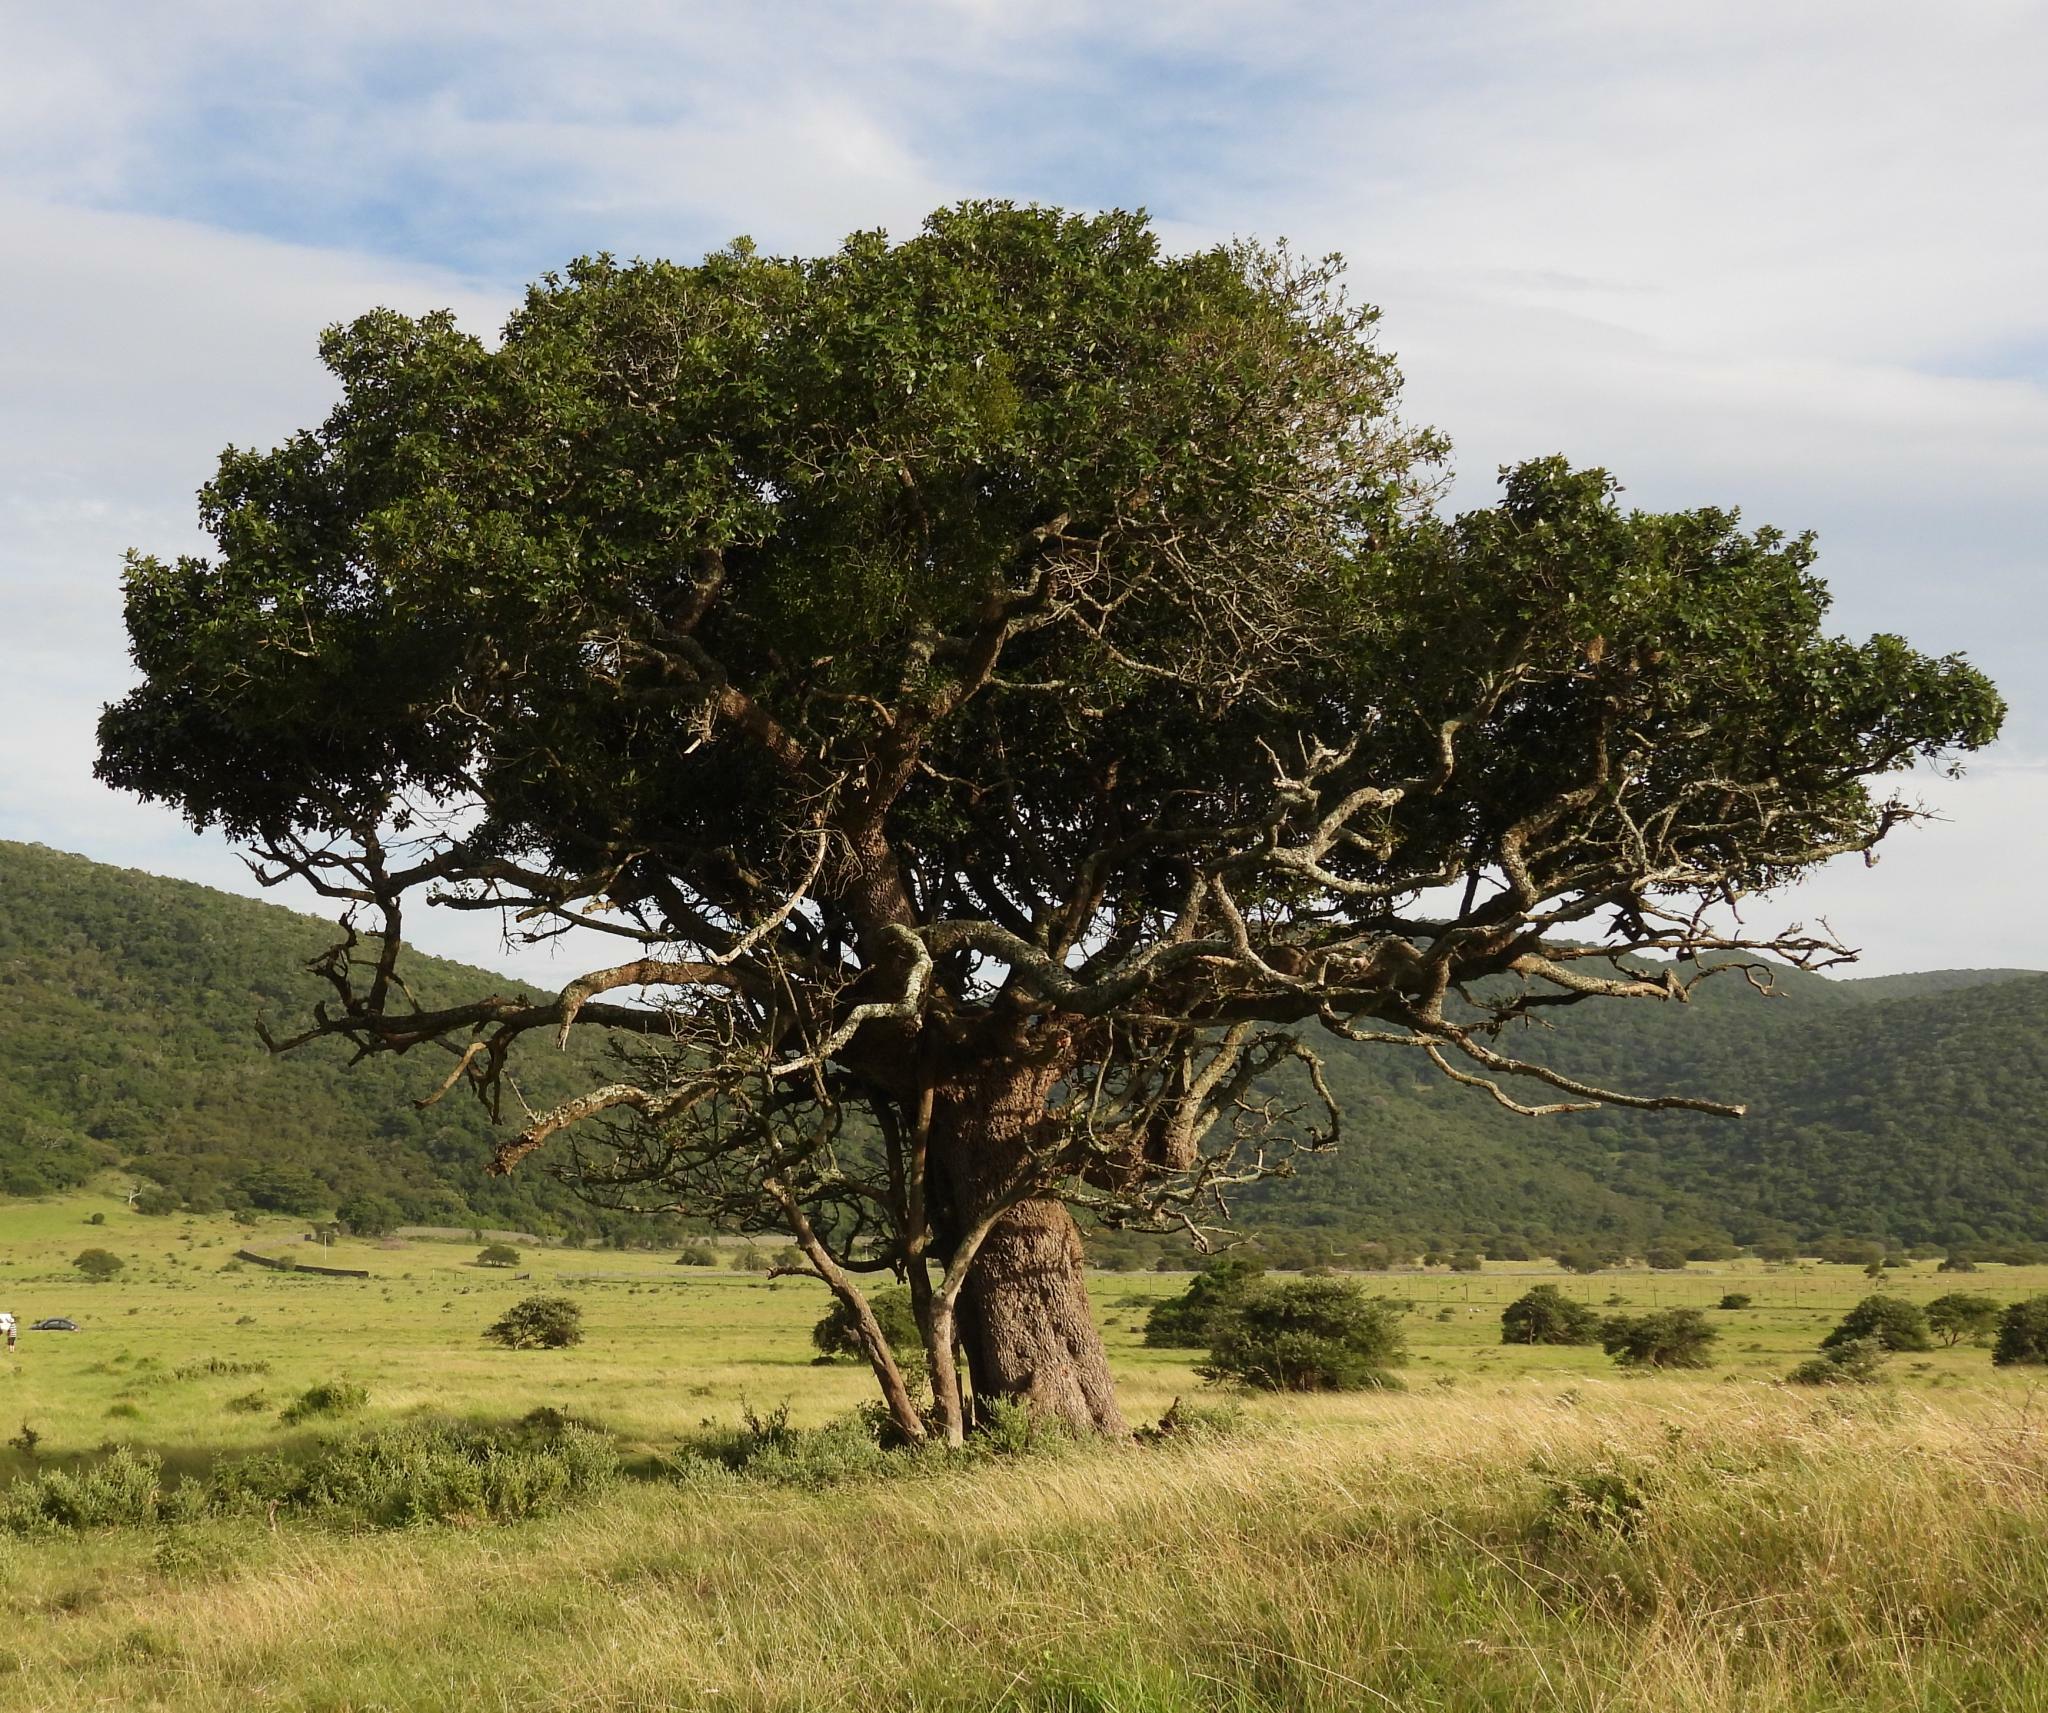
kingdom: Plantae
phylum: Tracheophyta
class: Magnoliopsida
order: Ericales
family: Sapotaceae
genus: Sideroxylon
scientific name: Sideroxylon inerme
